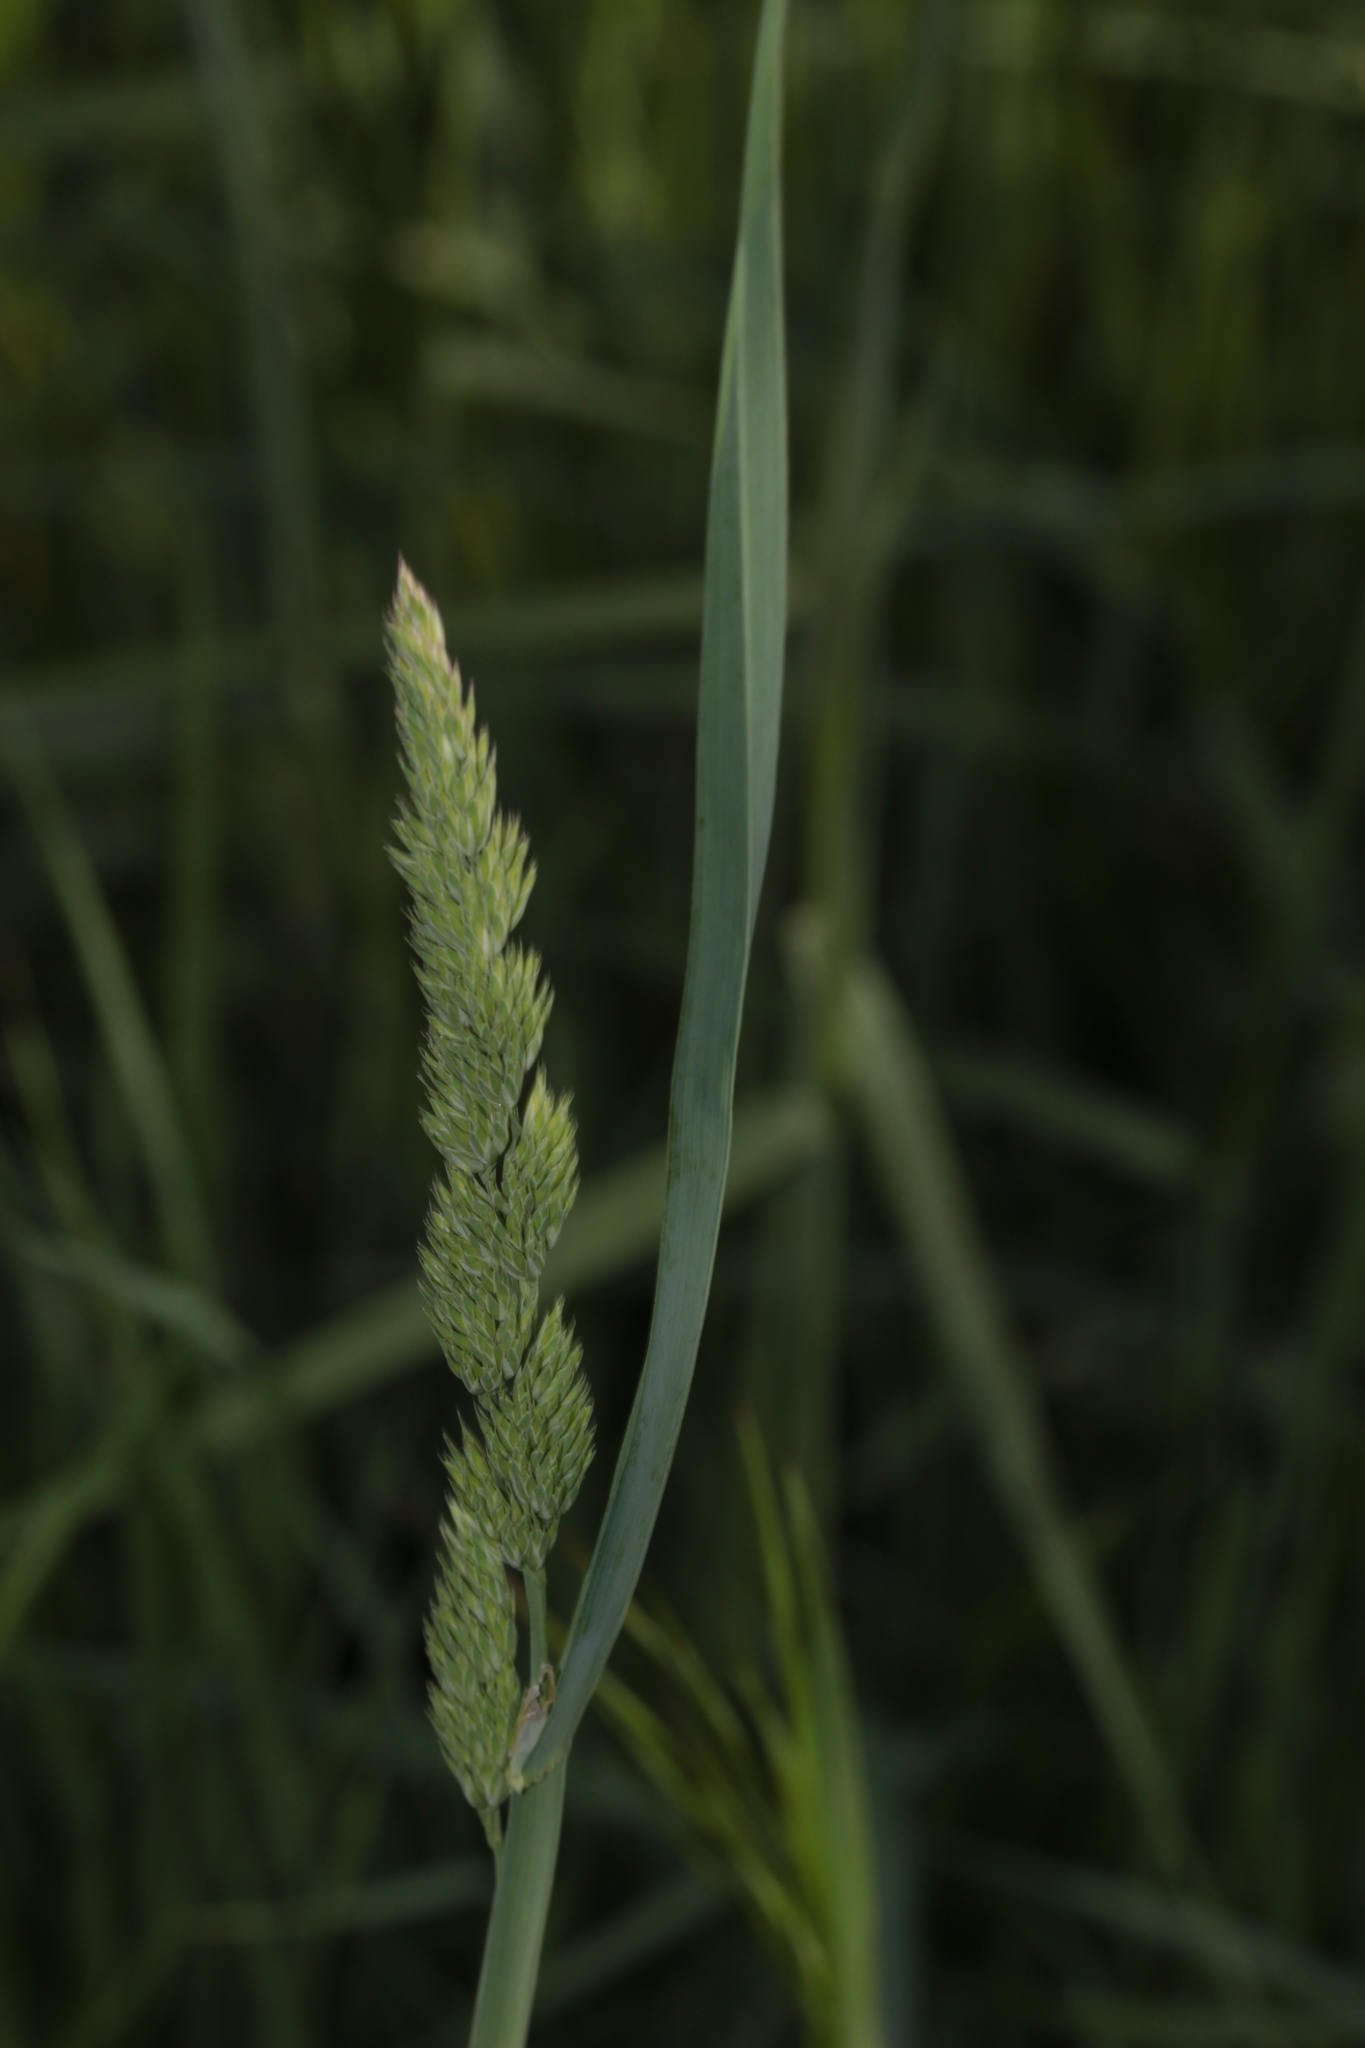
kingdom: Plantae
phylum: Tracheophyta
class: Liliopsida
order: Poales
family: Poaceae
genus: Dactylis
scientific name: Dactylis glomerata
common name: Orchardgrass
